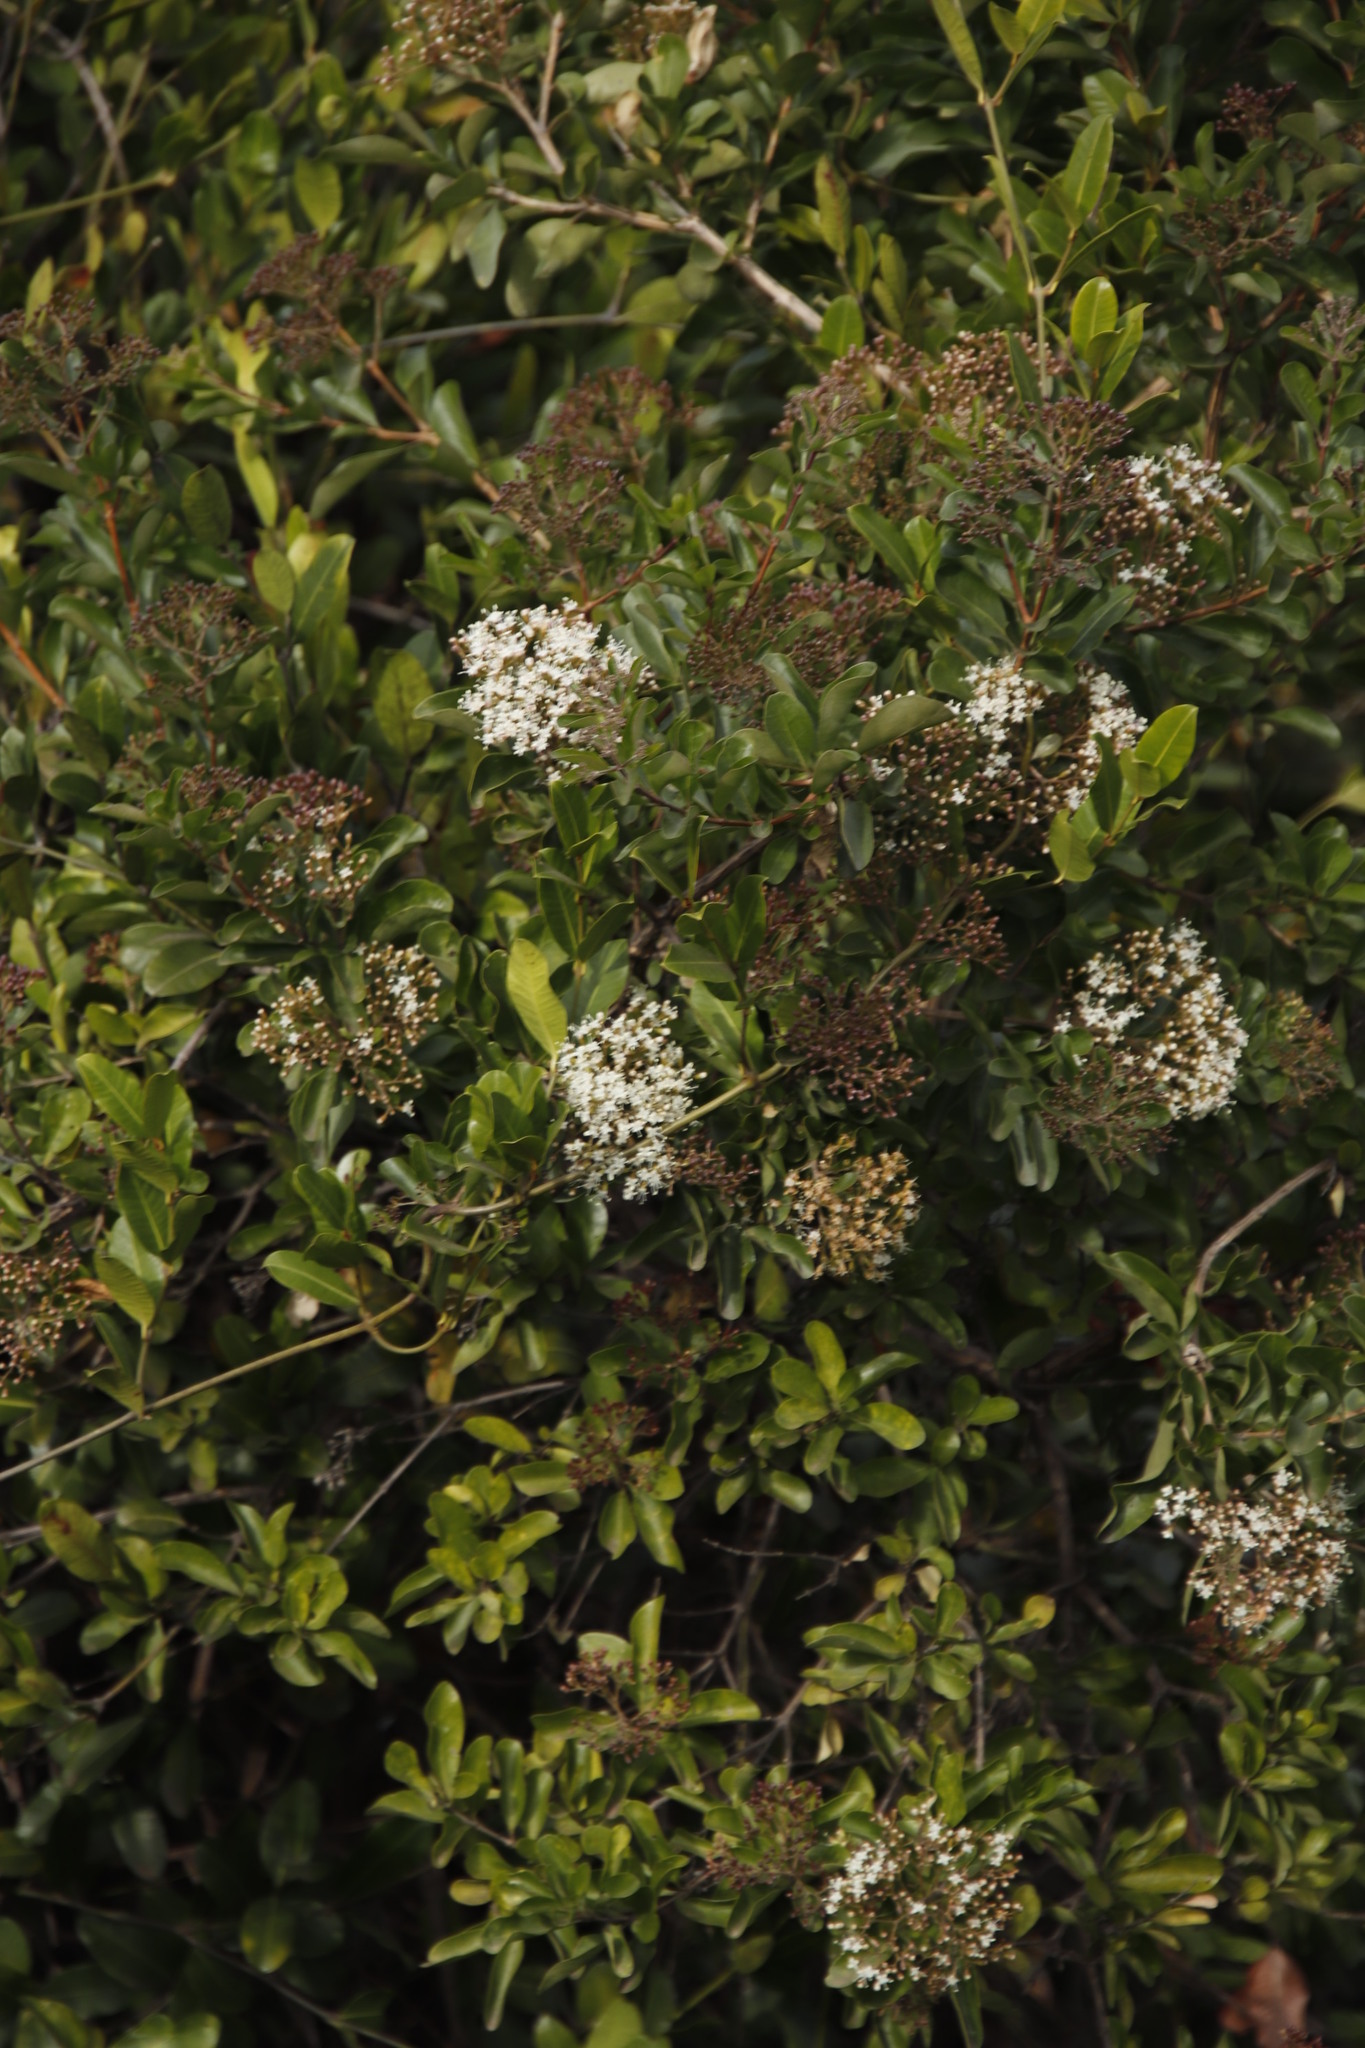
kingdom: Plantae
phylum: Tracheophyta
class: Magnoliopsida
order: Lamiales
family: Stilbaceae
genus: Nuxia
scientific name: Nuxia congesta
